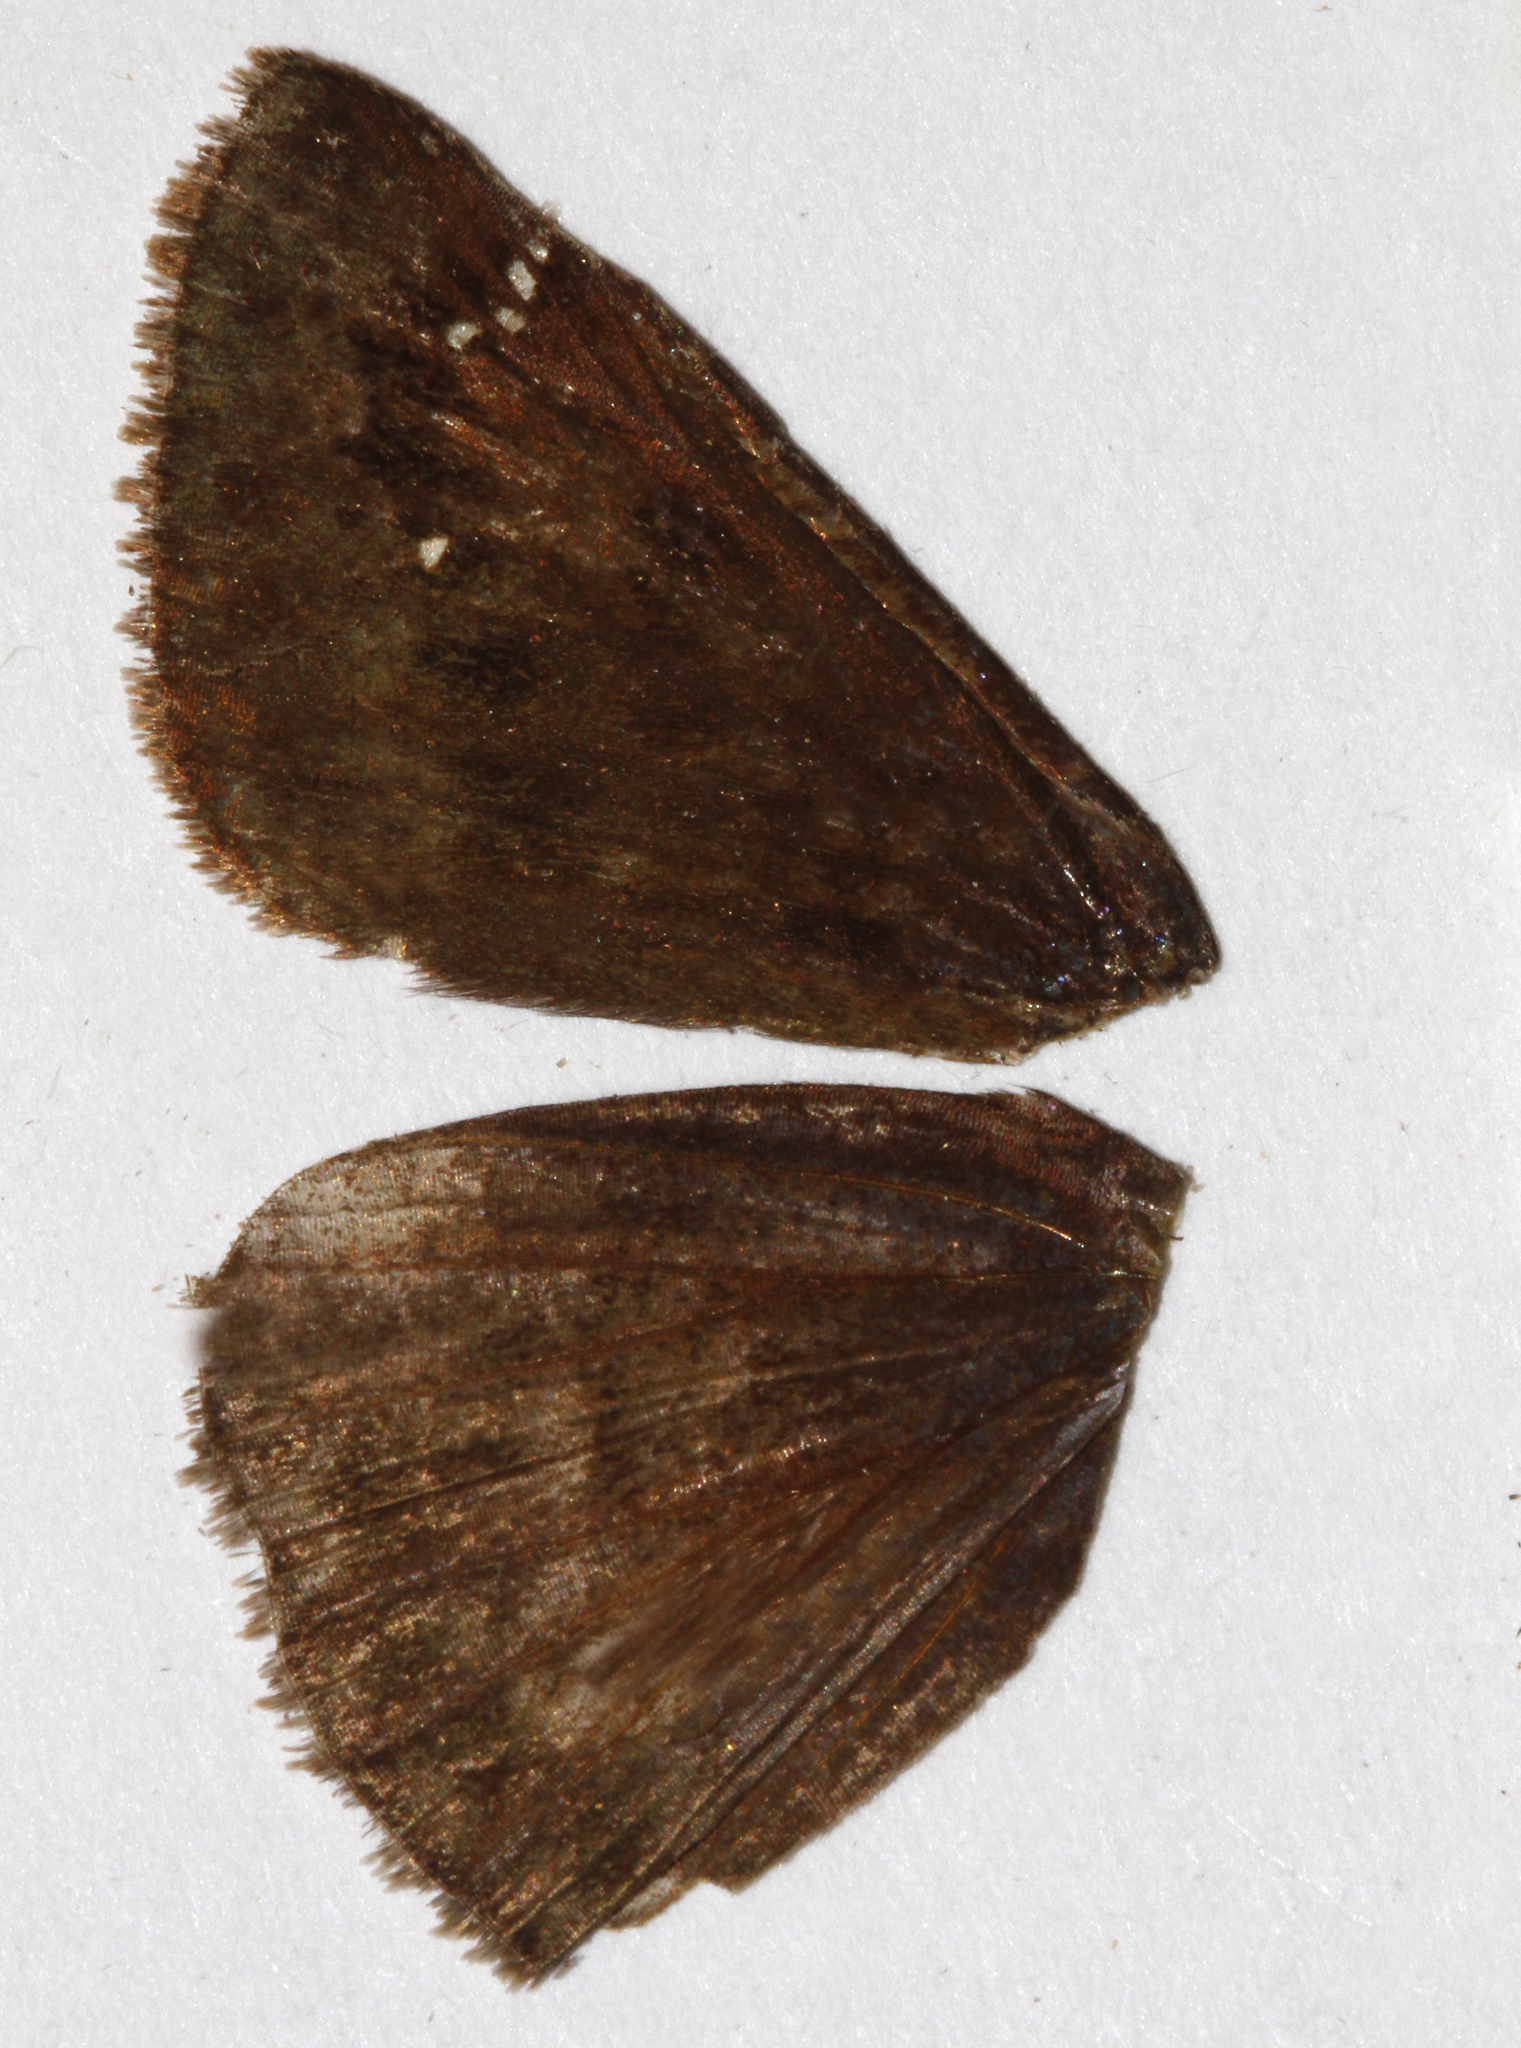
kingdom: Animalia
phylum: Arthropoda
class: Insecta
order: Lepidoptera
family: Hesperiidae
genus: Erynnis
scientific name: Erynnis zarucco
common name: Zarucco duskywing
